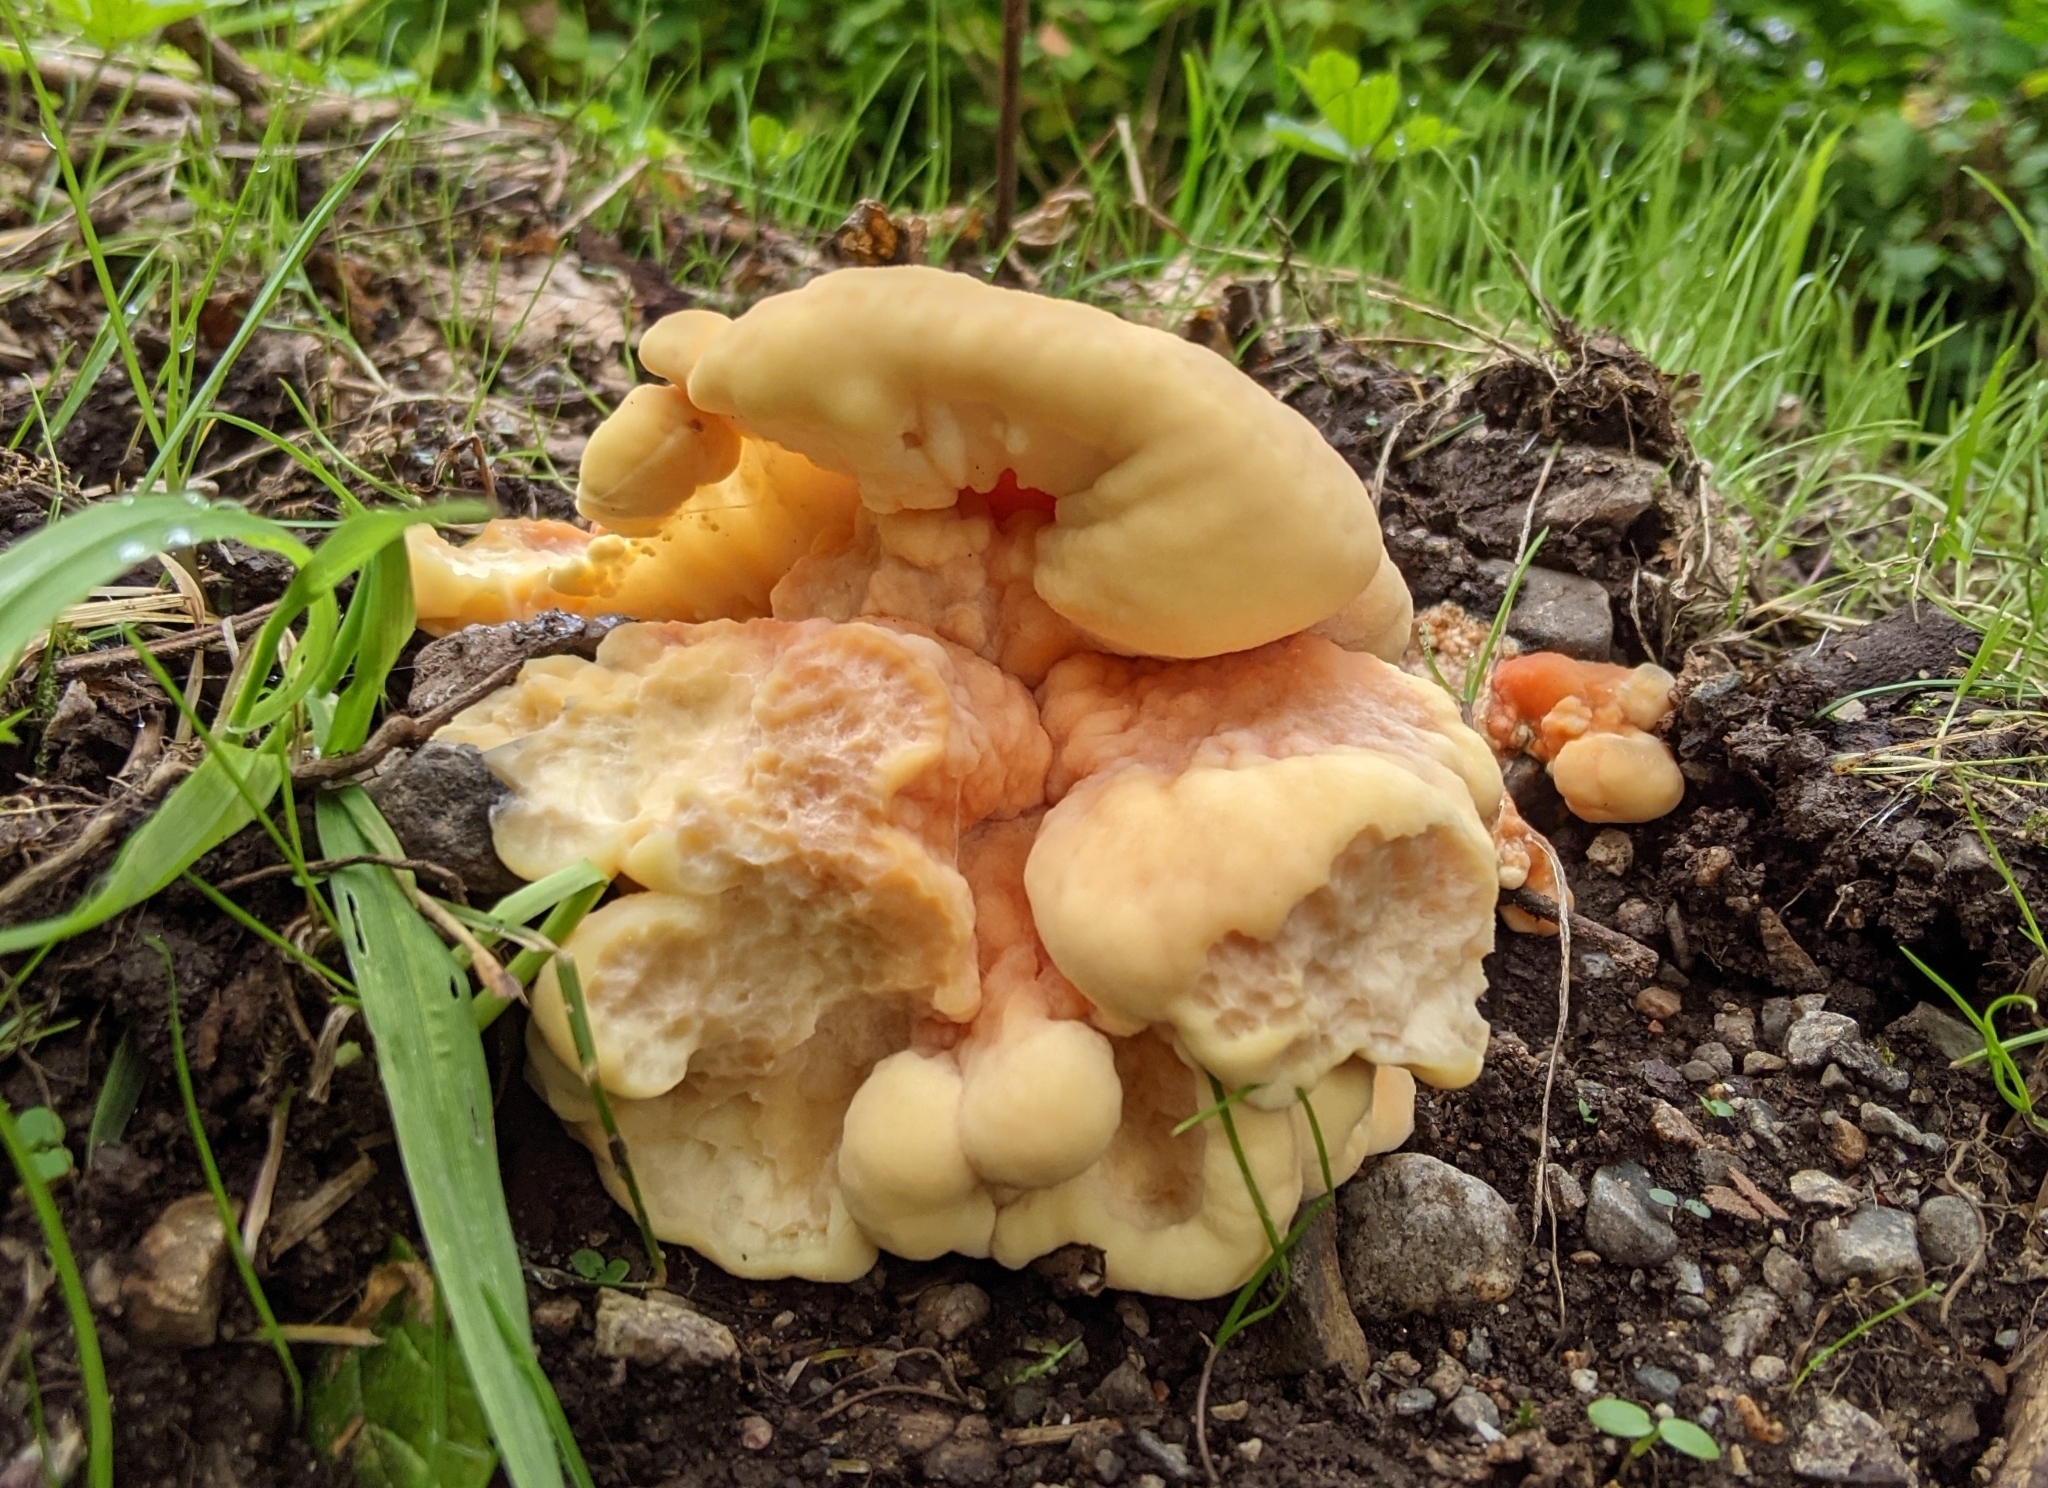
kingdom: Fungi
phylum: Basidiomycota
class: Agaricomycetes
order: Polyporales
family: Laetiporaceae
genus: Laetiporus
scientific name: Laetiporus conifericola
